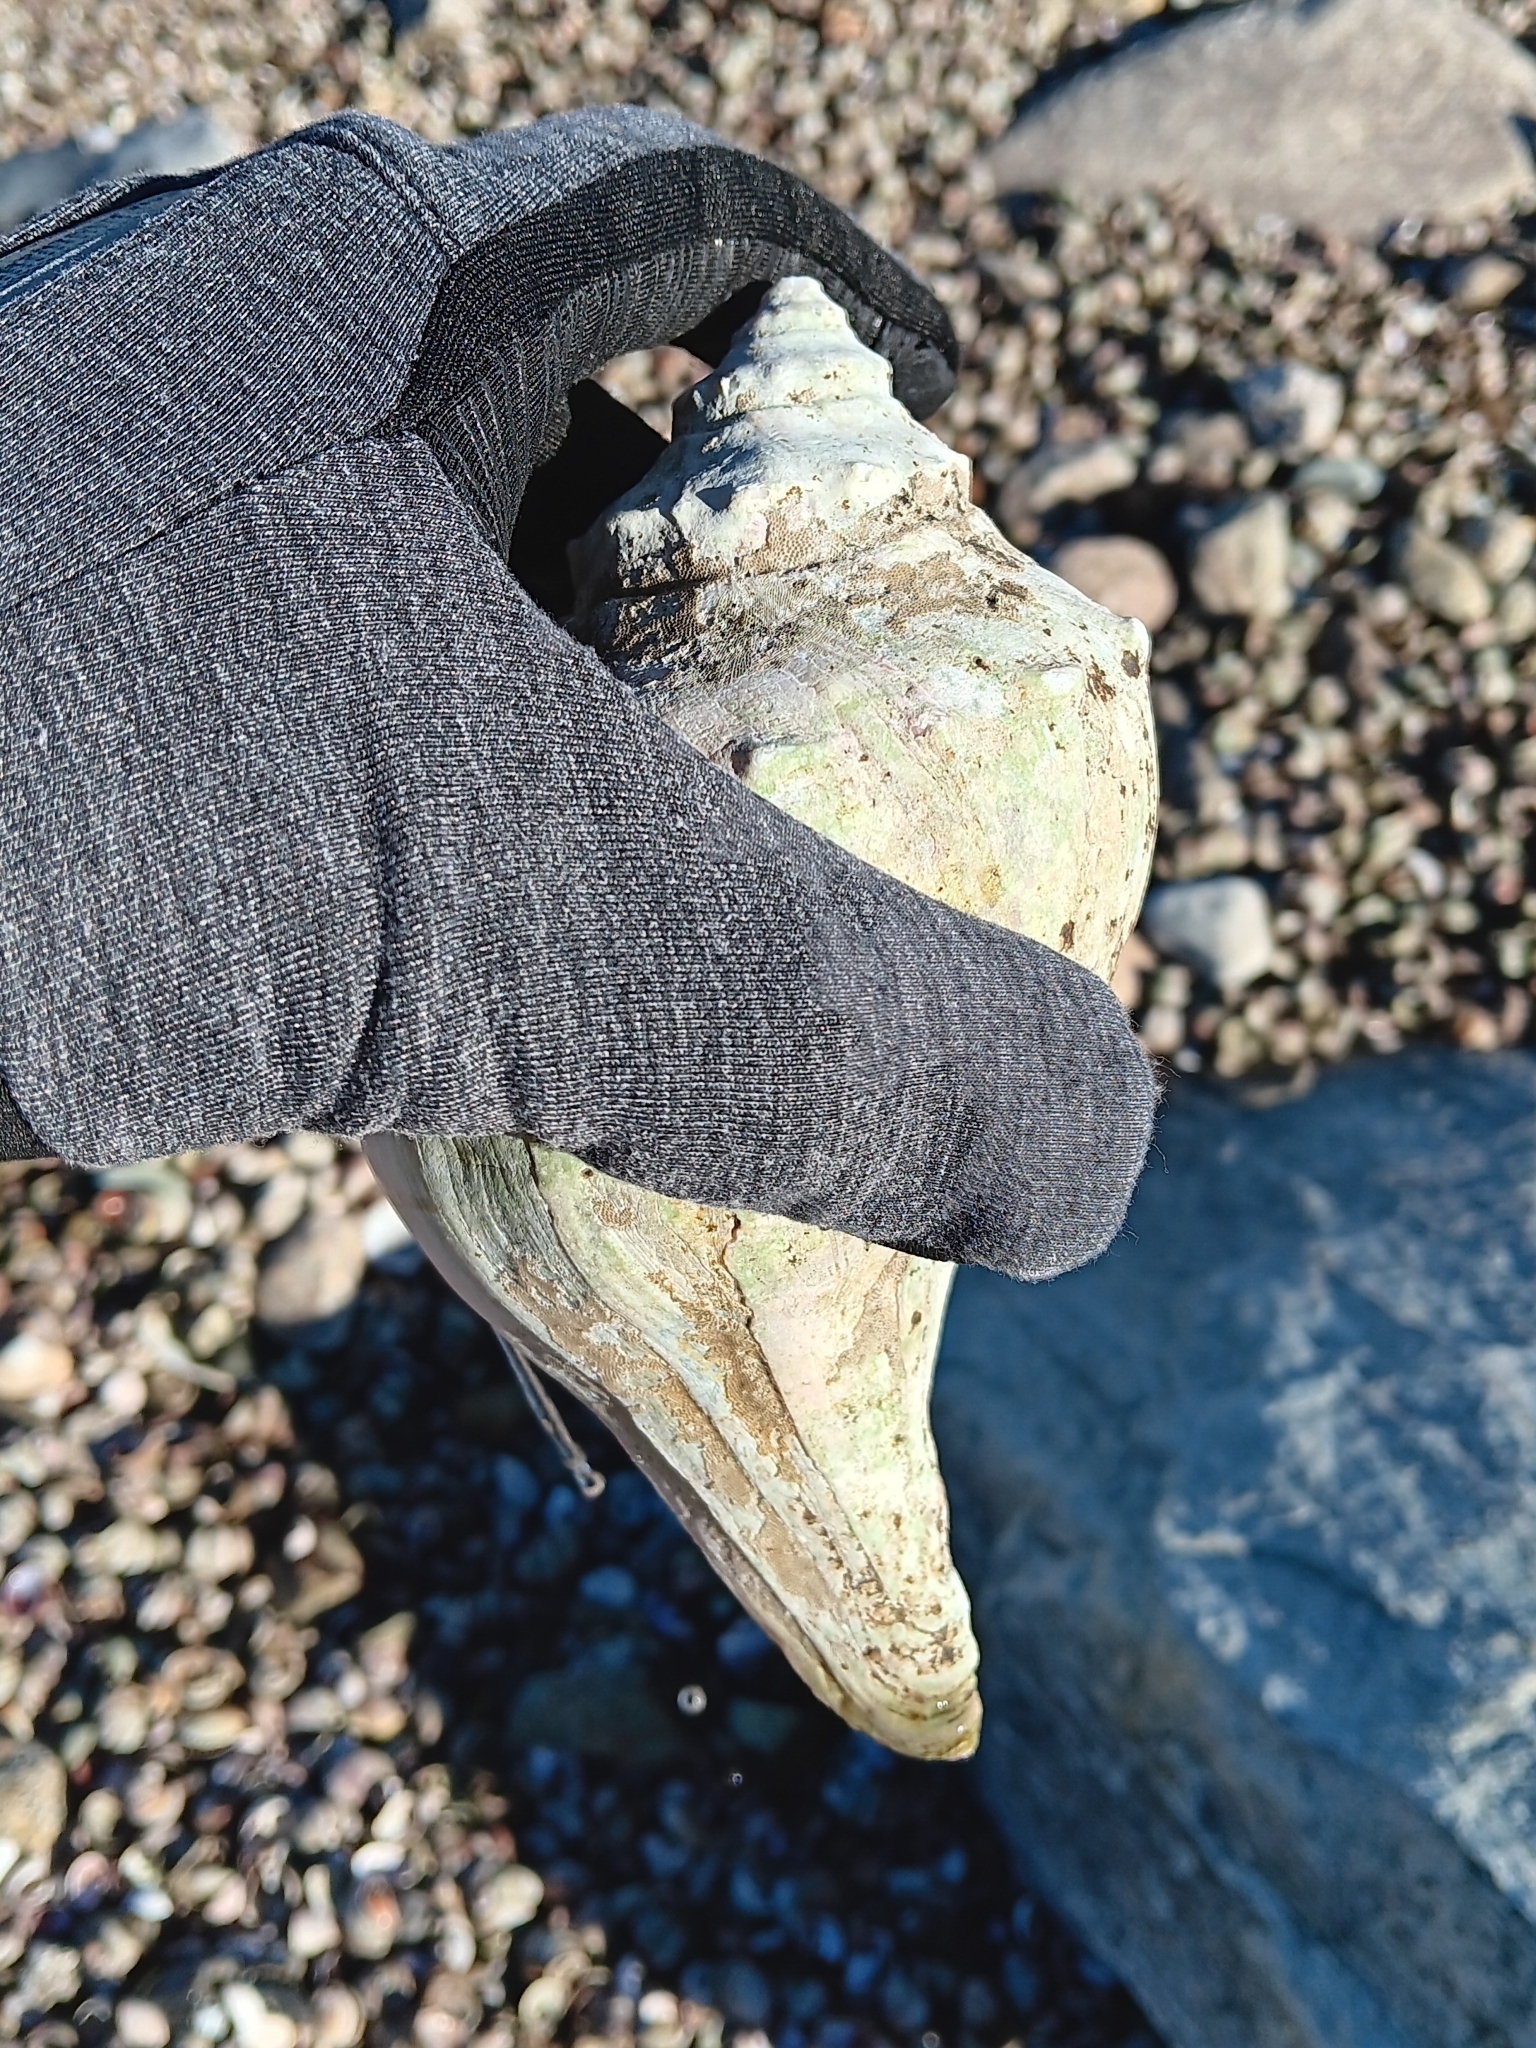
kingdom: Animalia
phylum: Mollusca
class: Gastropoda
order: Neogastropoda
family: Busyconidae
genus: Busycon
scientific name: Busycon carica
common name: Knobbed whelk
